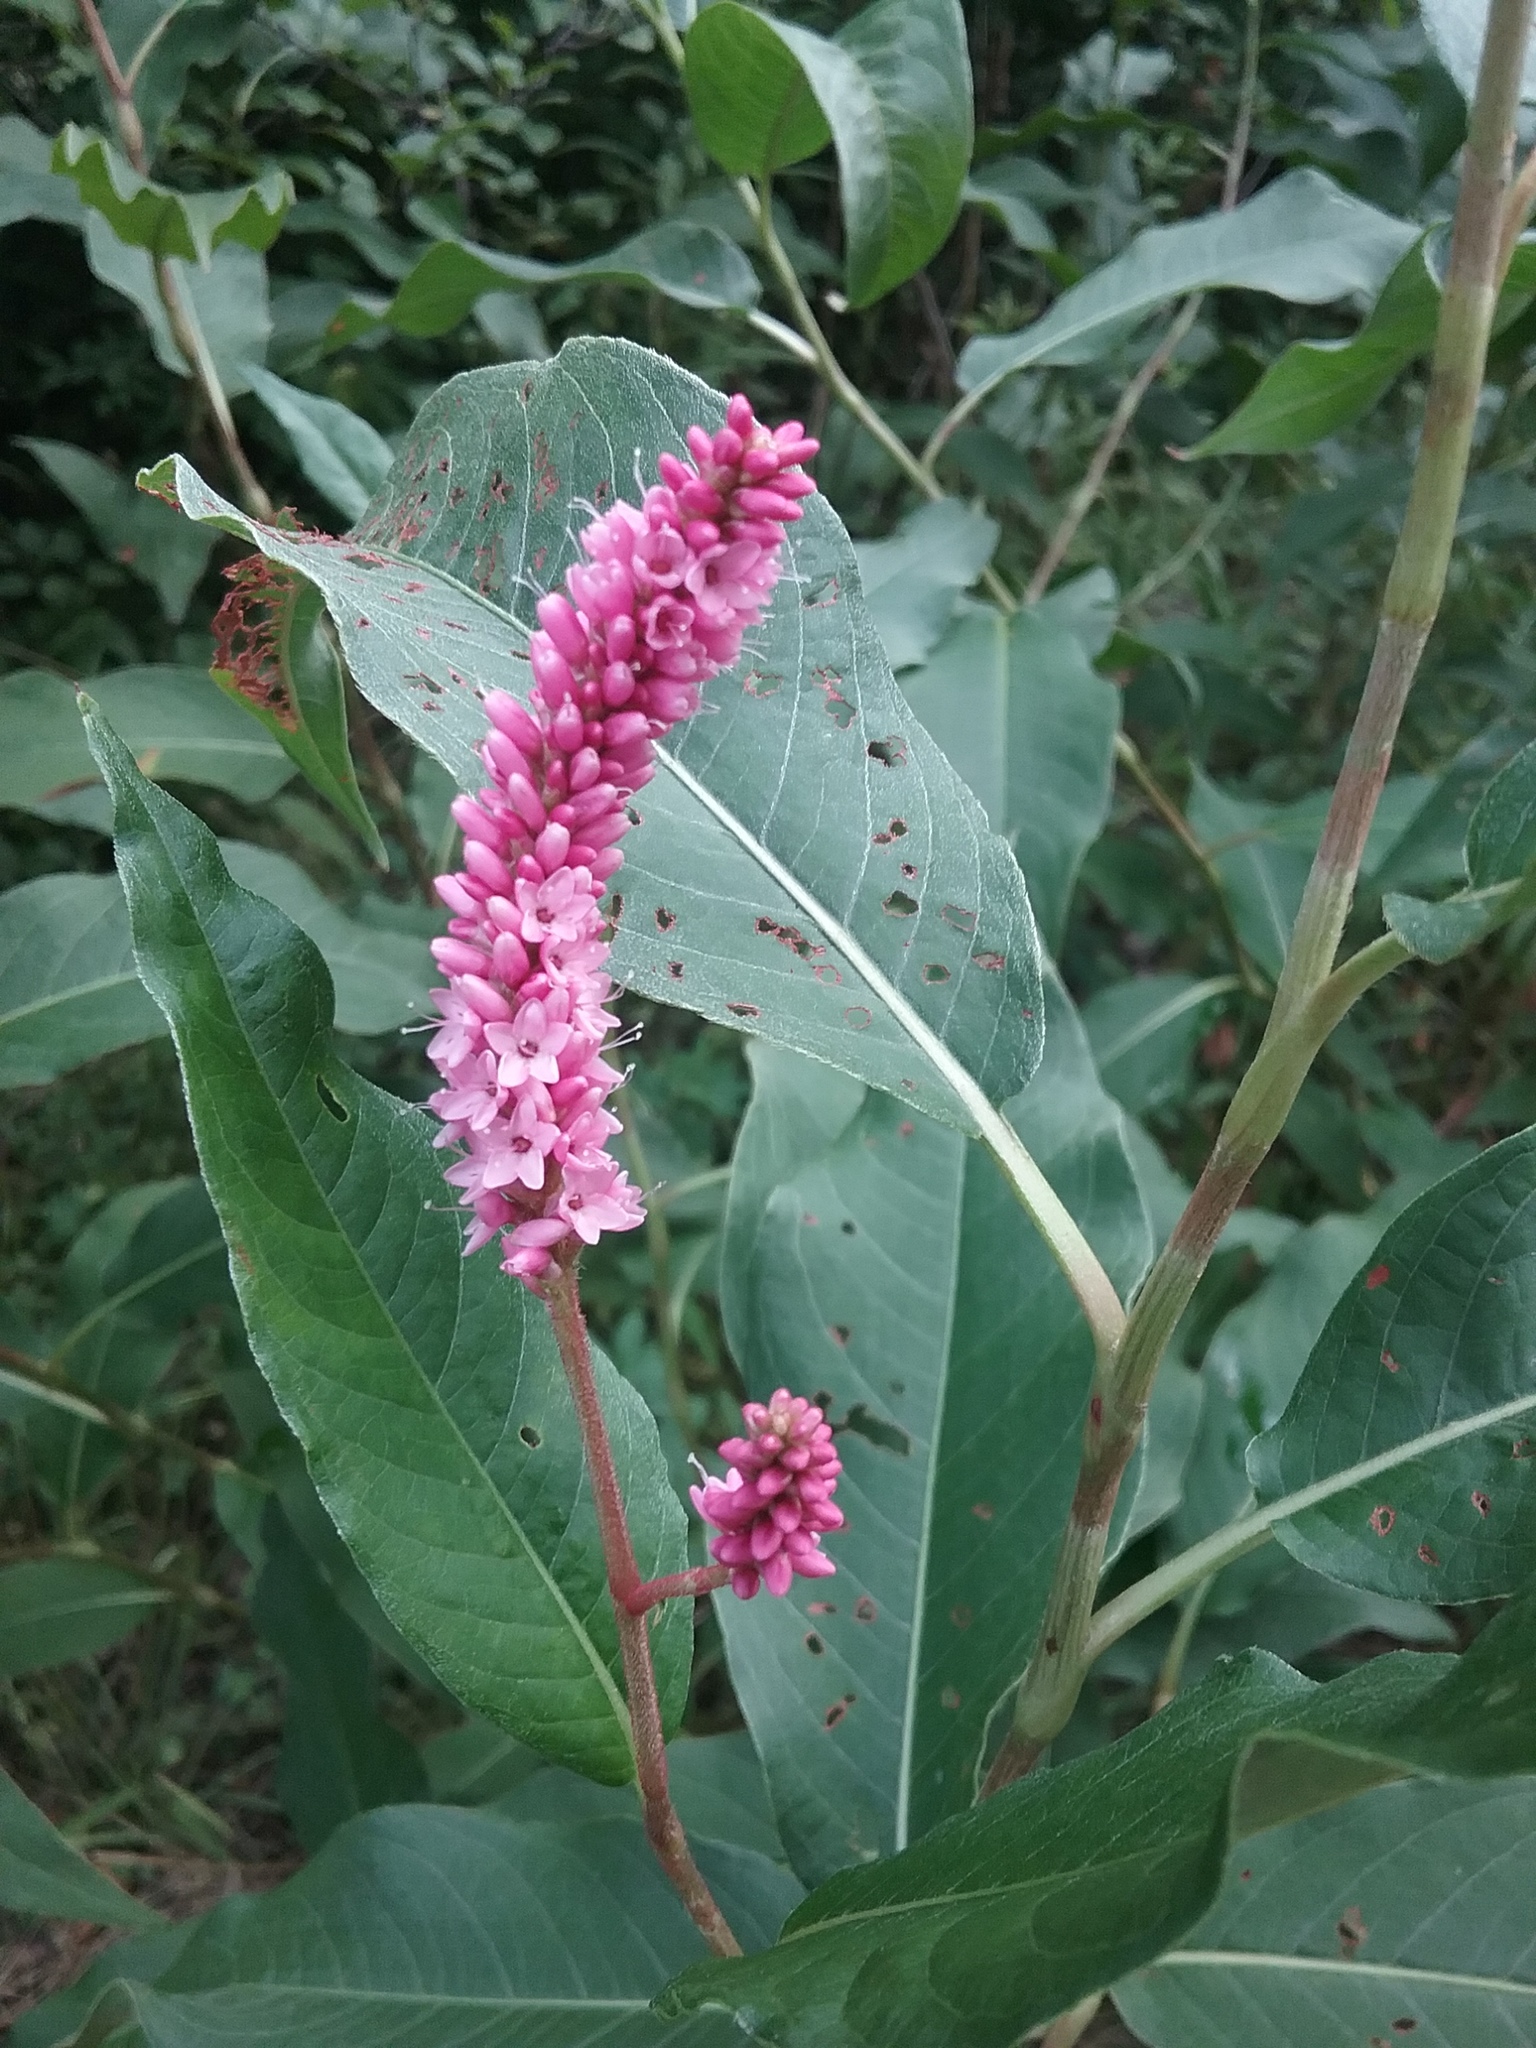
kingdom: Plantae
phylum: Tracheophyta
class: Magnoliopsida
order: Caryophyllales
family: Polygonaceae
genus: Persicaria
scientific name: Persicaria amphibia
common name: Amphibious bistort
